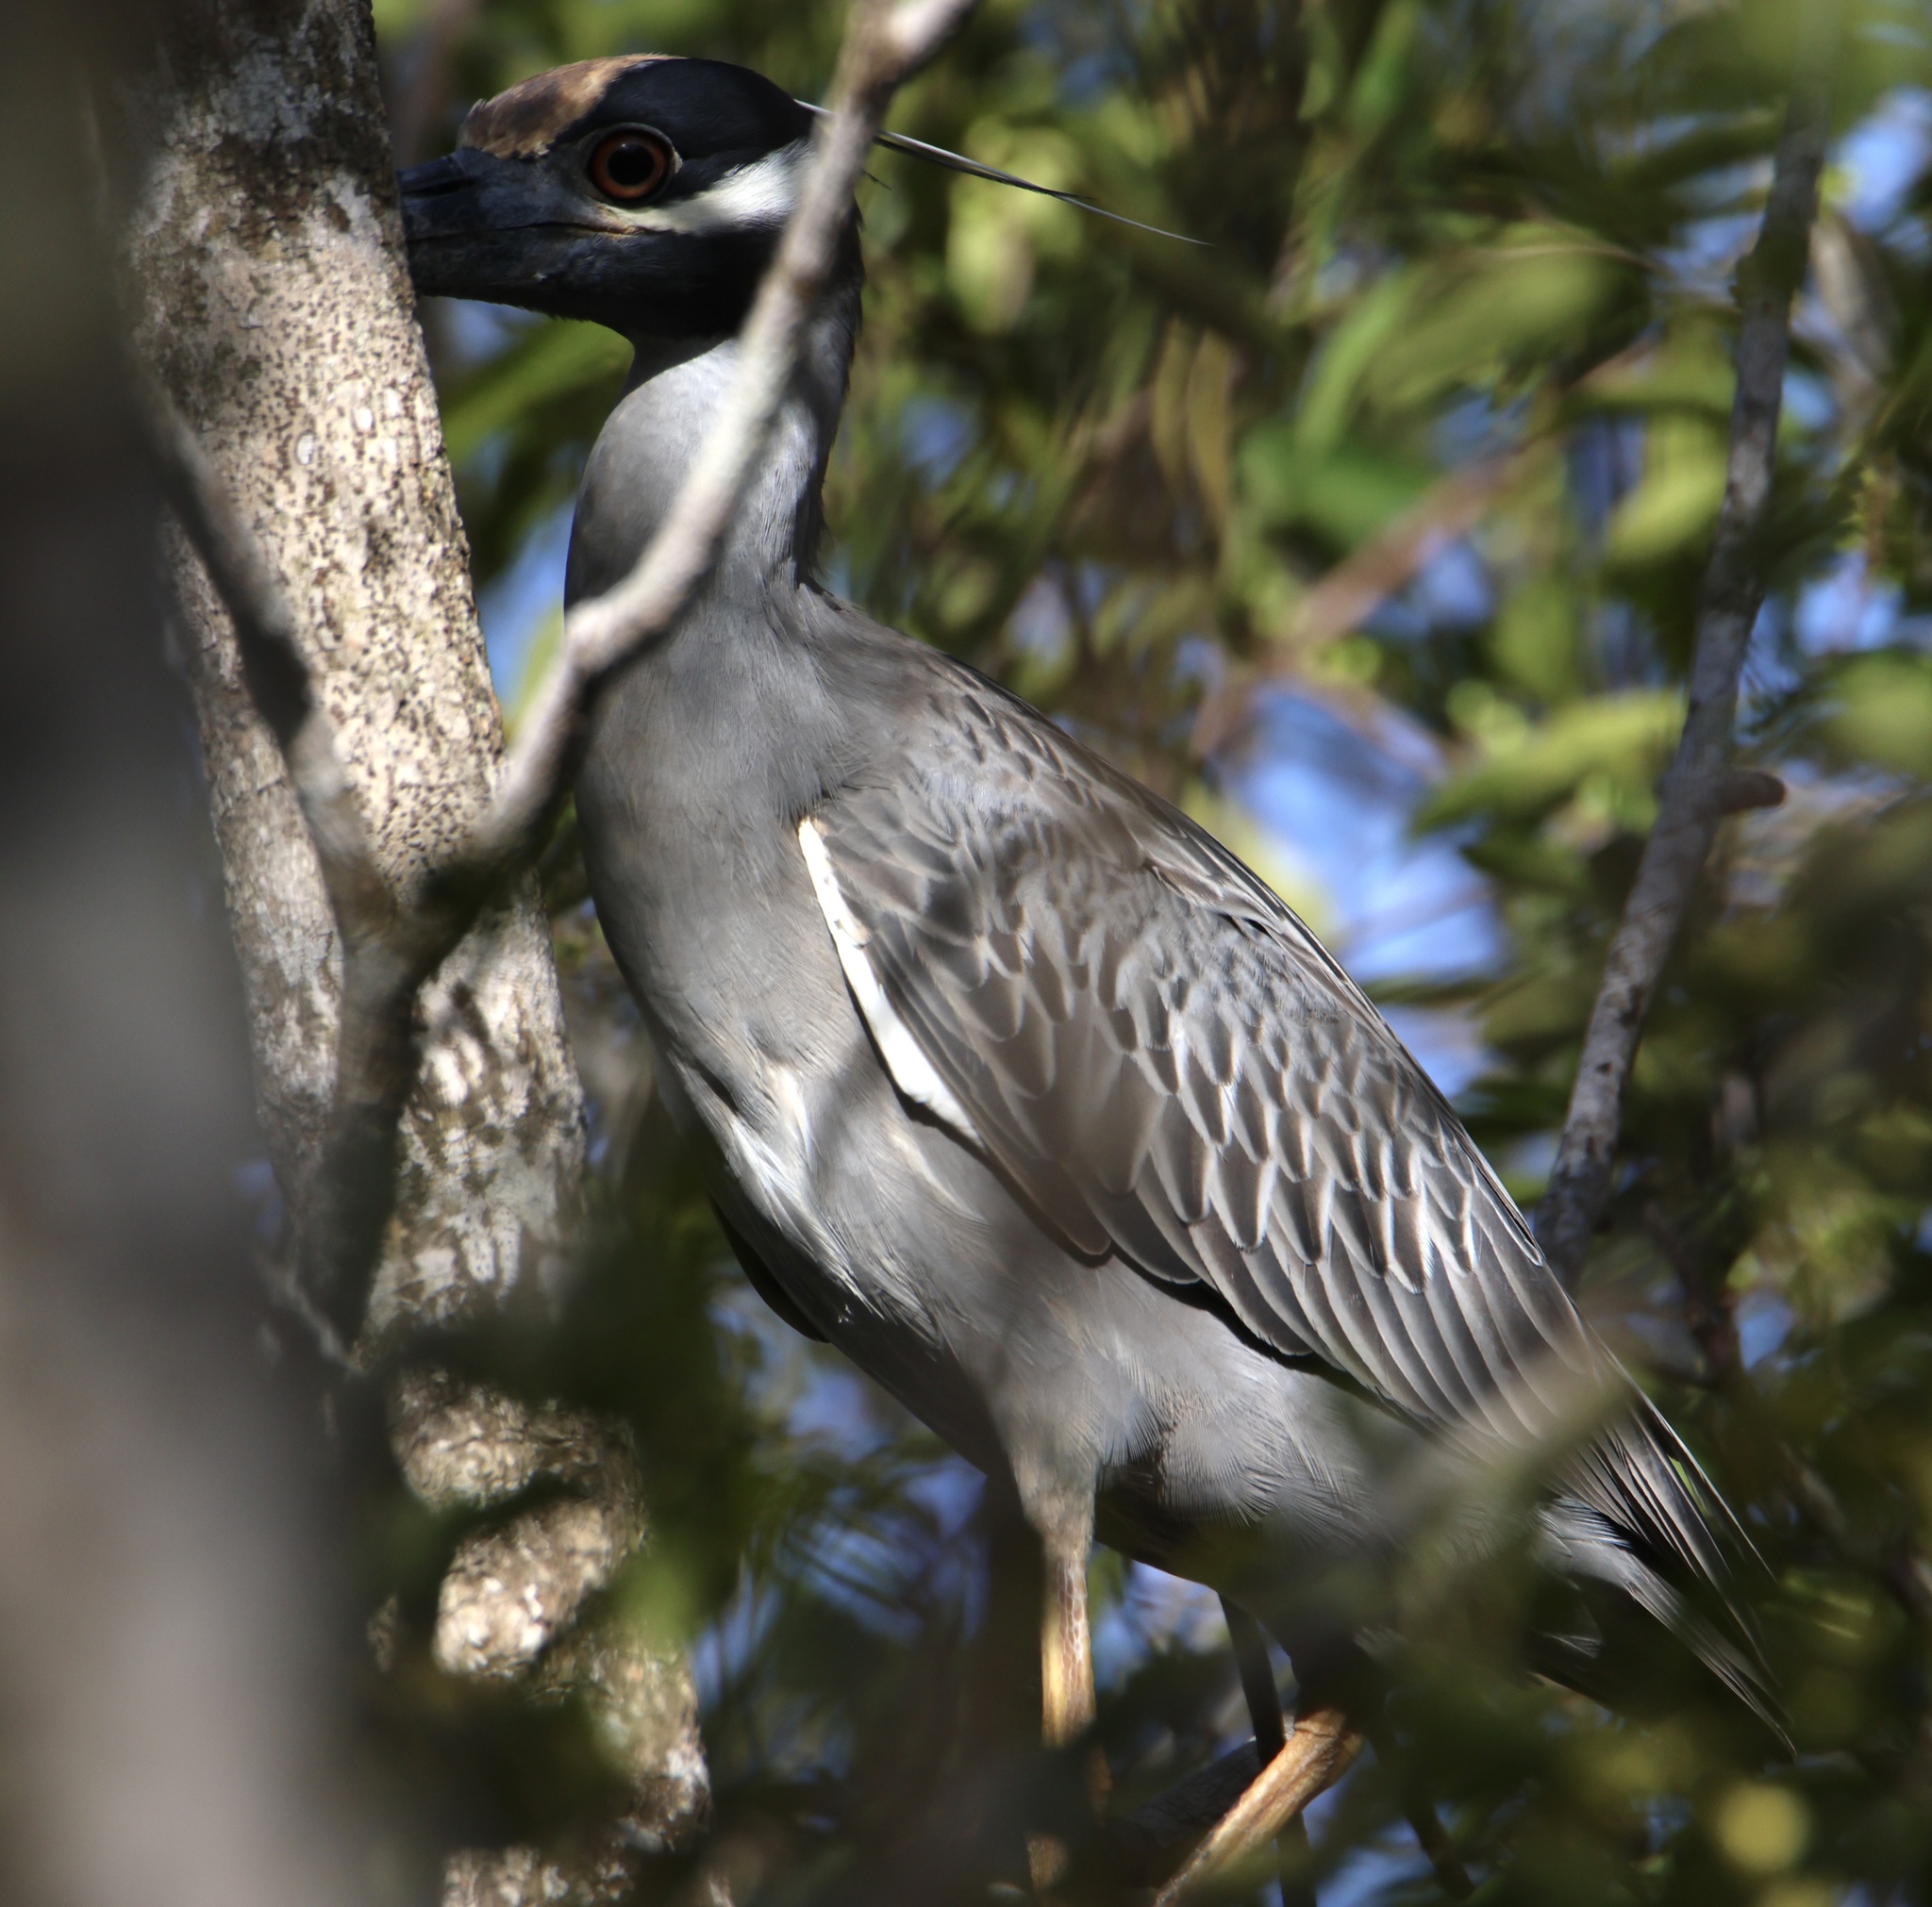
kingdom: Animalia
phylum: Chordata
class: Aves
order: Pelecaniformes
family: Ardeidae
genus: Nyctanassa
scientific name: Nyctanassa violacea
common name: Yellow-crowned night heron
